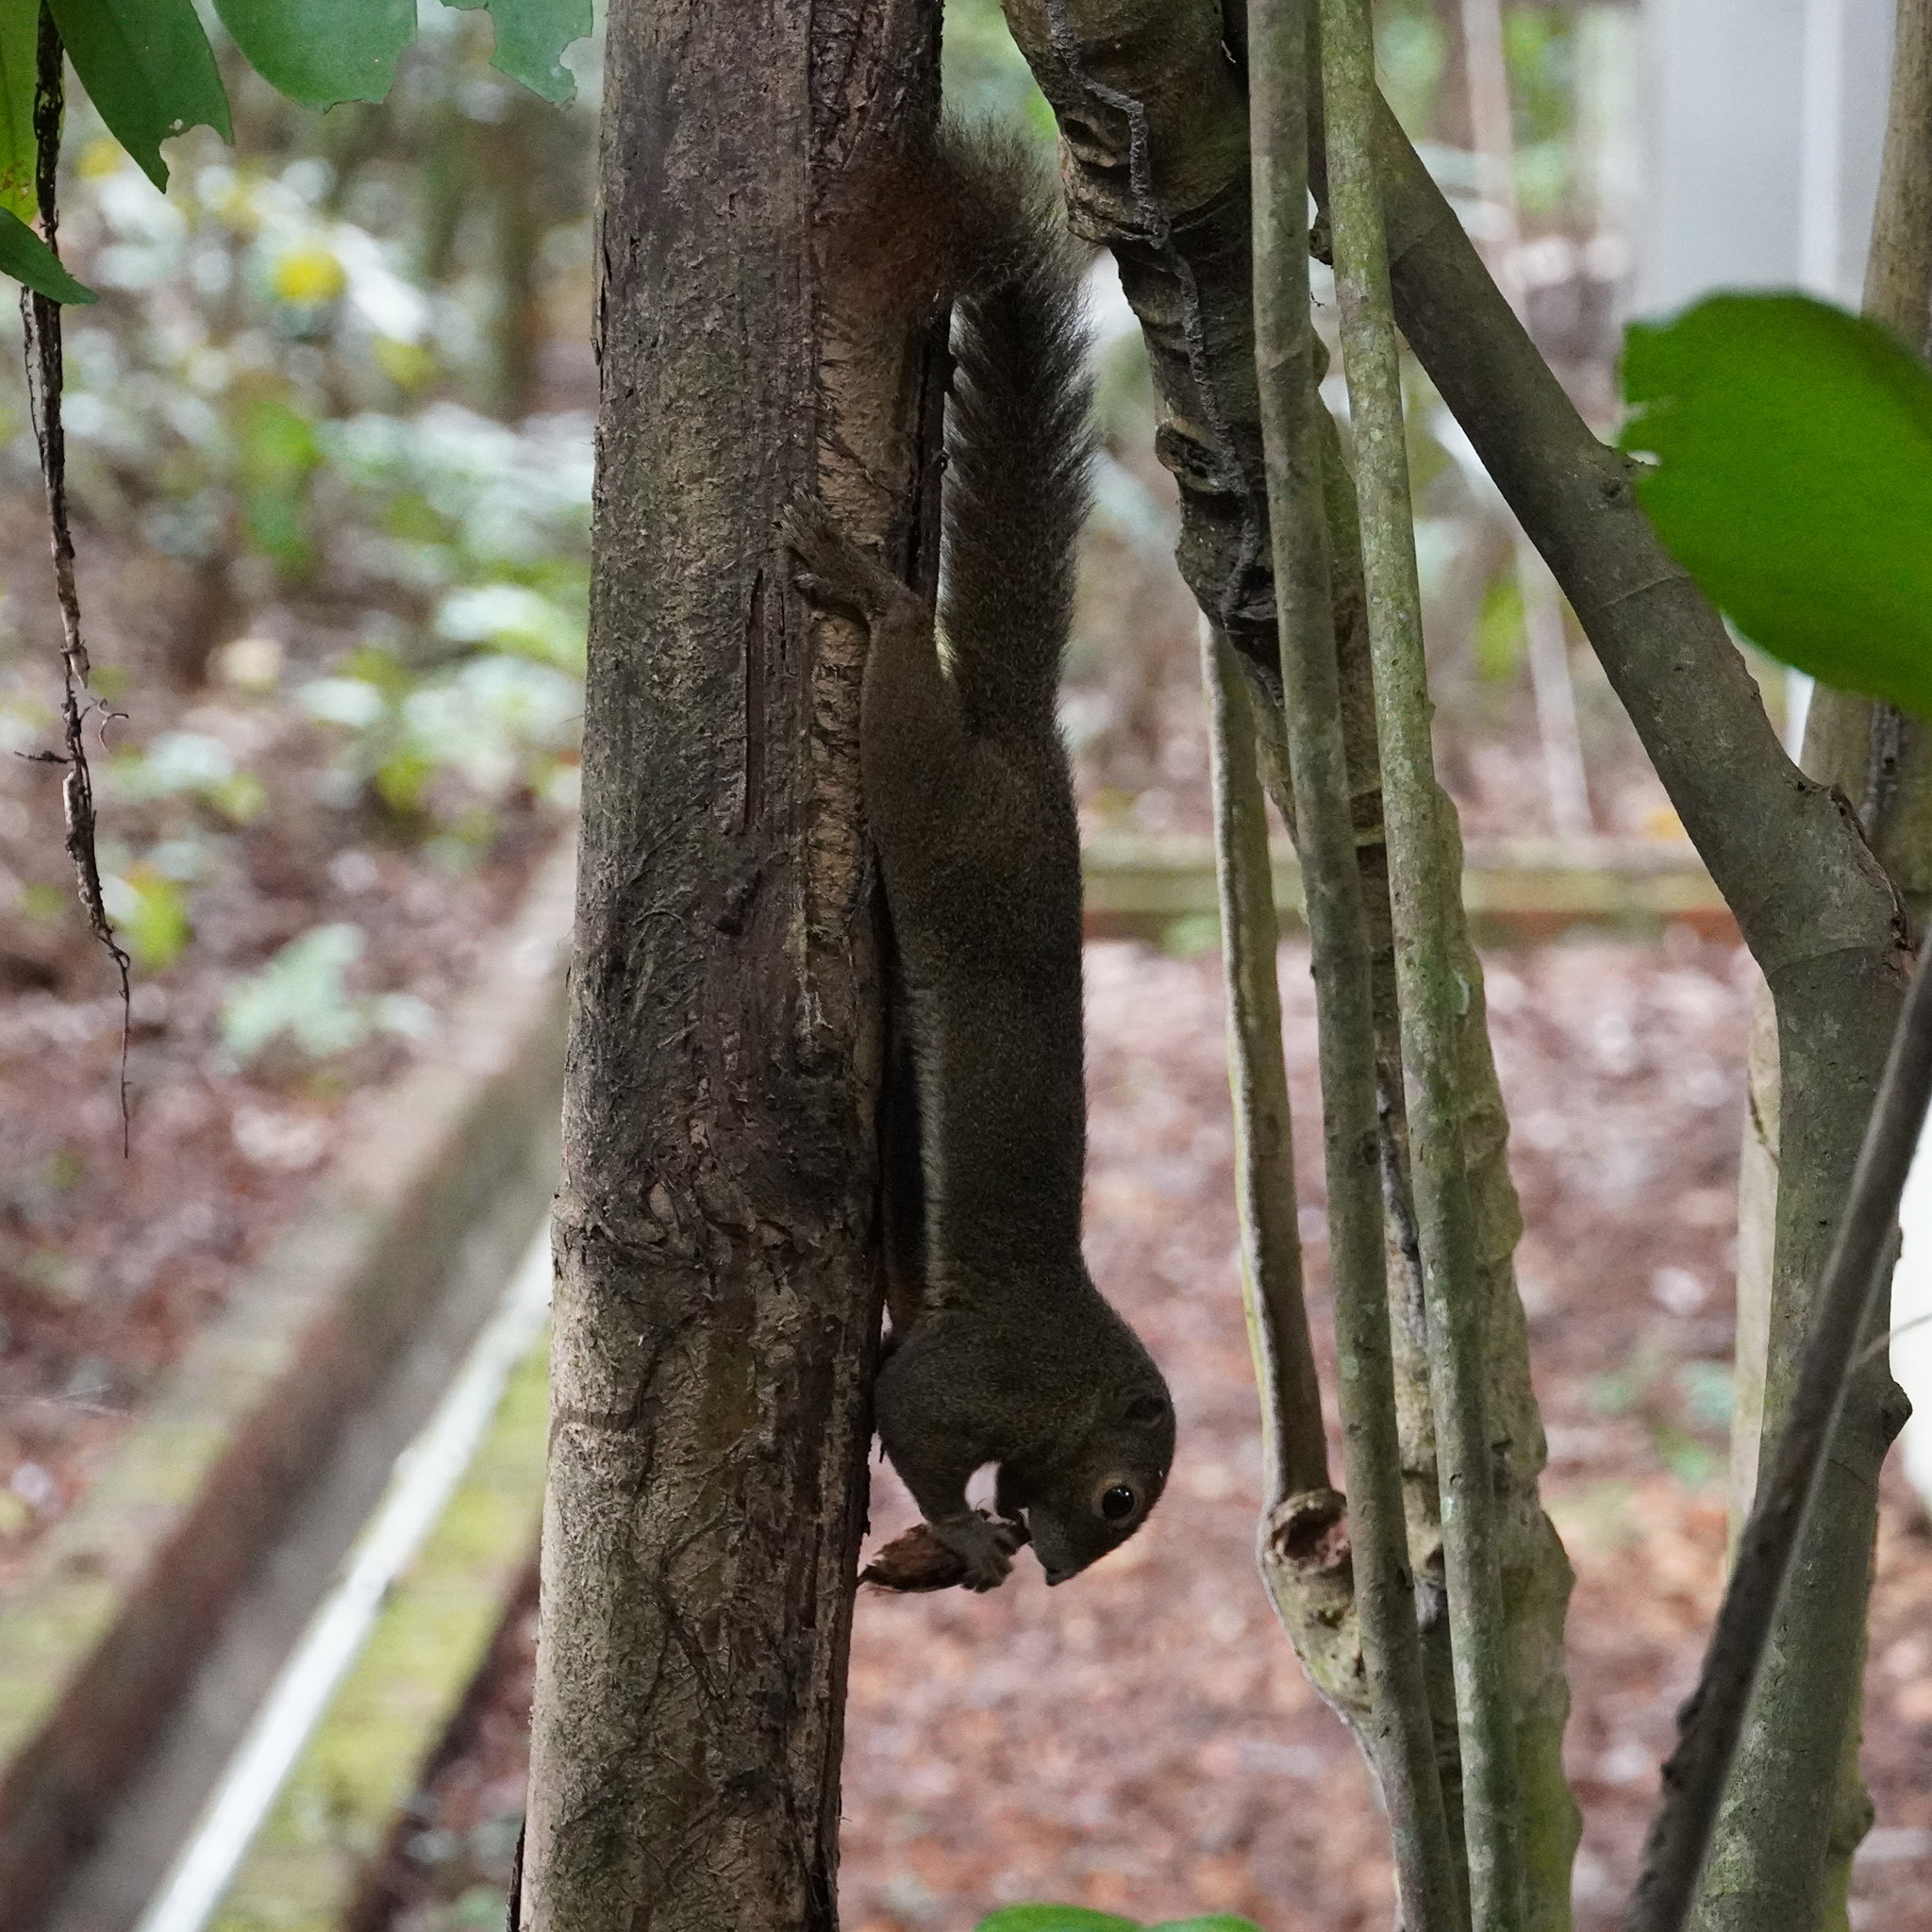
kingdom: Animalia
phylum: Chordata
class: Mammalia
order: Rodentia
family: Sciuridae
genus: Callosciurus
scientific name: Callosciurus notatus
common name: Plantain squirrel
